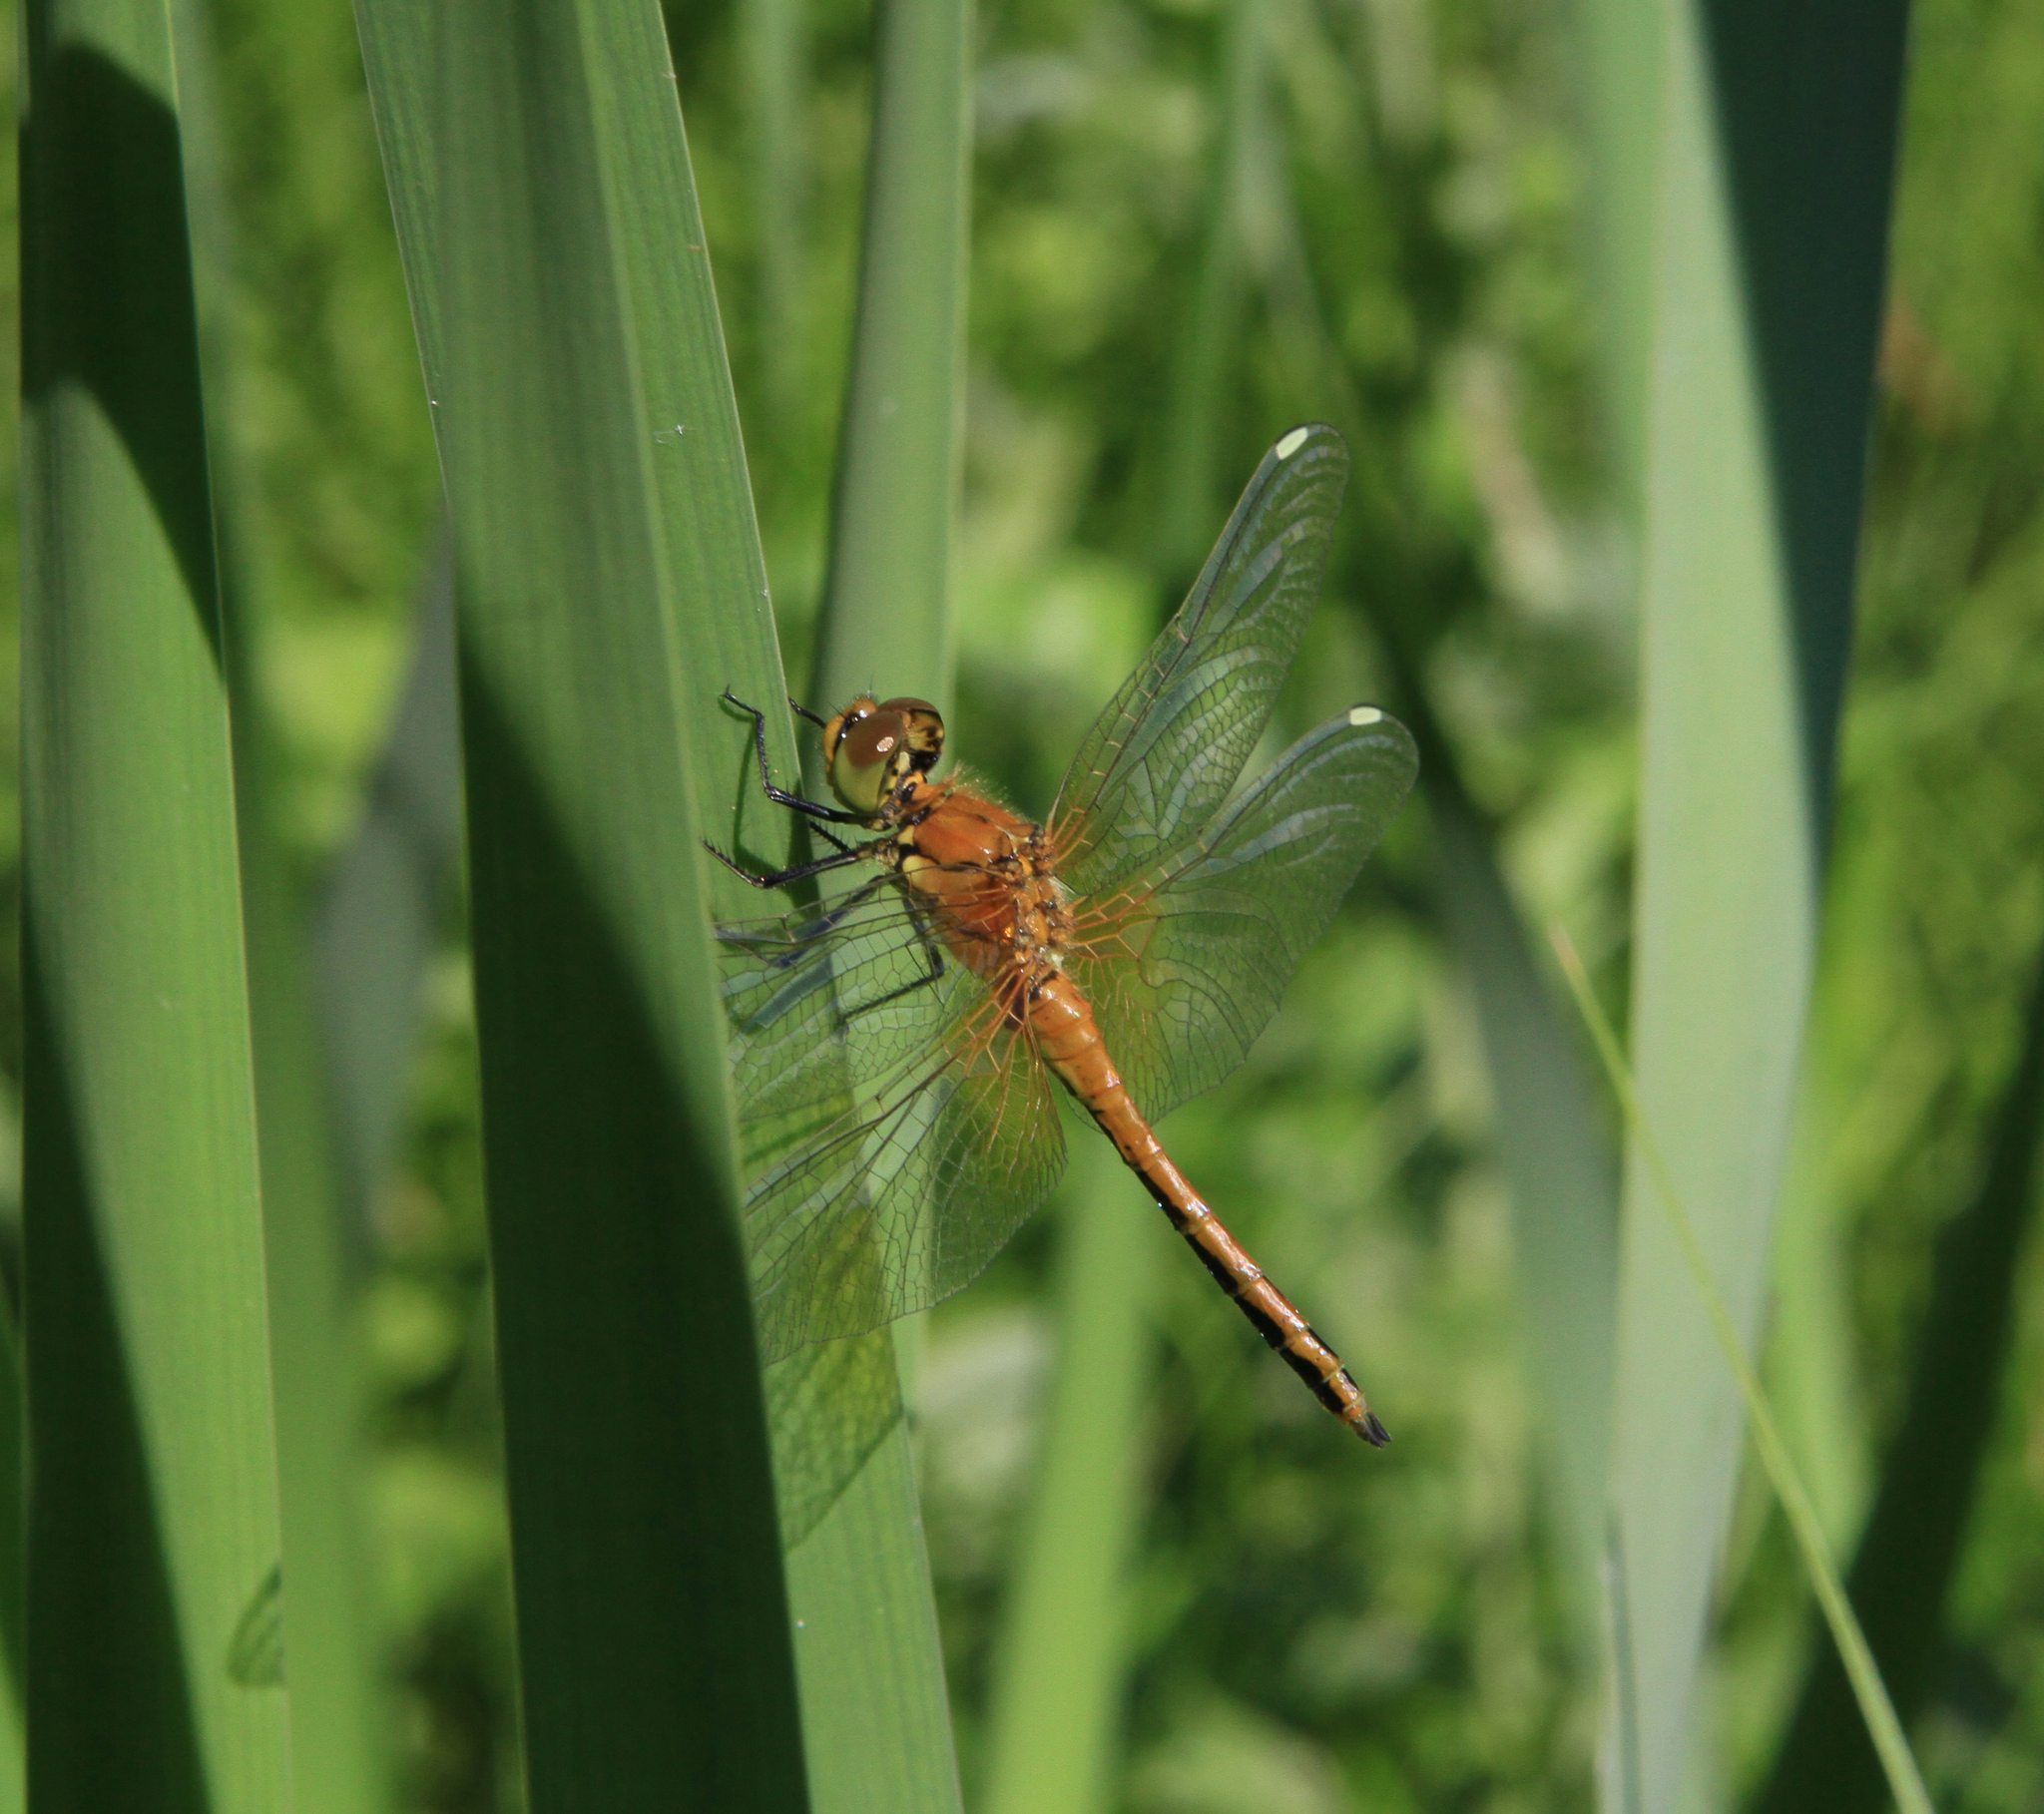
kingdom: Animalia
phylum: Arthropoda
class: Insecta
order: Odonata
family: Libellulidae
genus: Sympetrum
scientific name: Sympetrum flaveolum
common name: Yellow-winged darter
